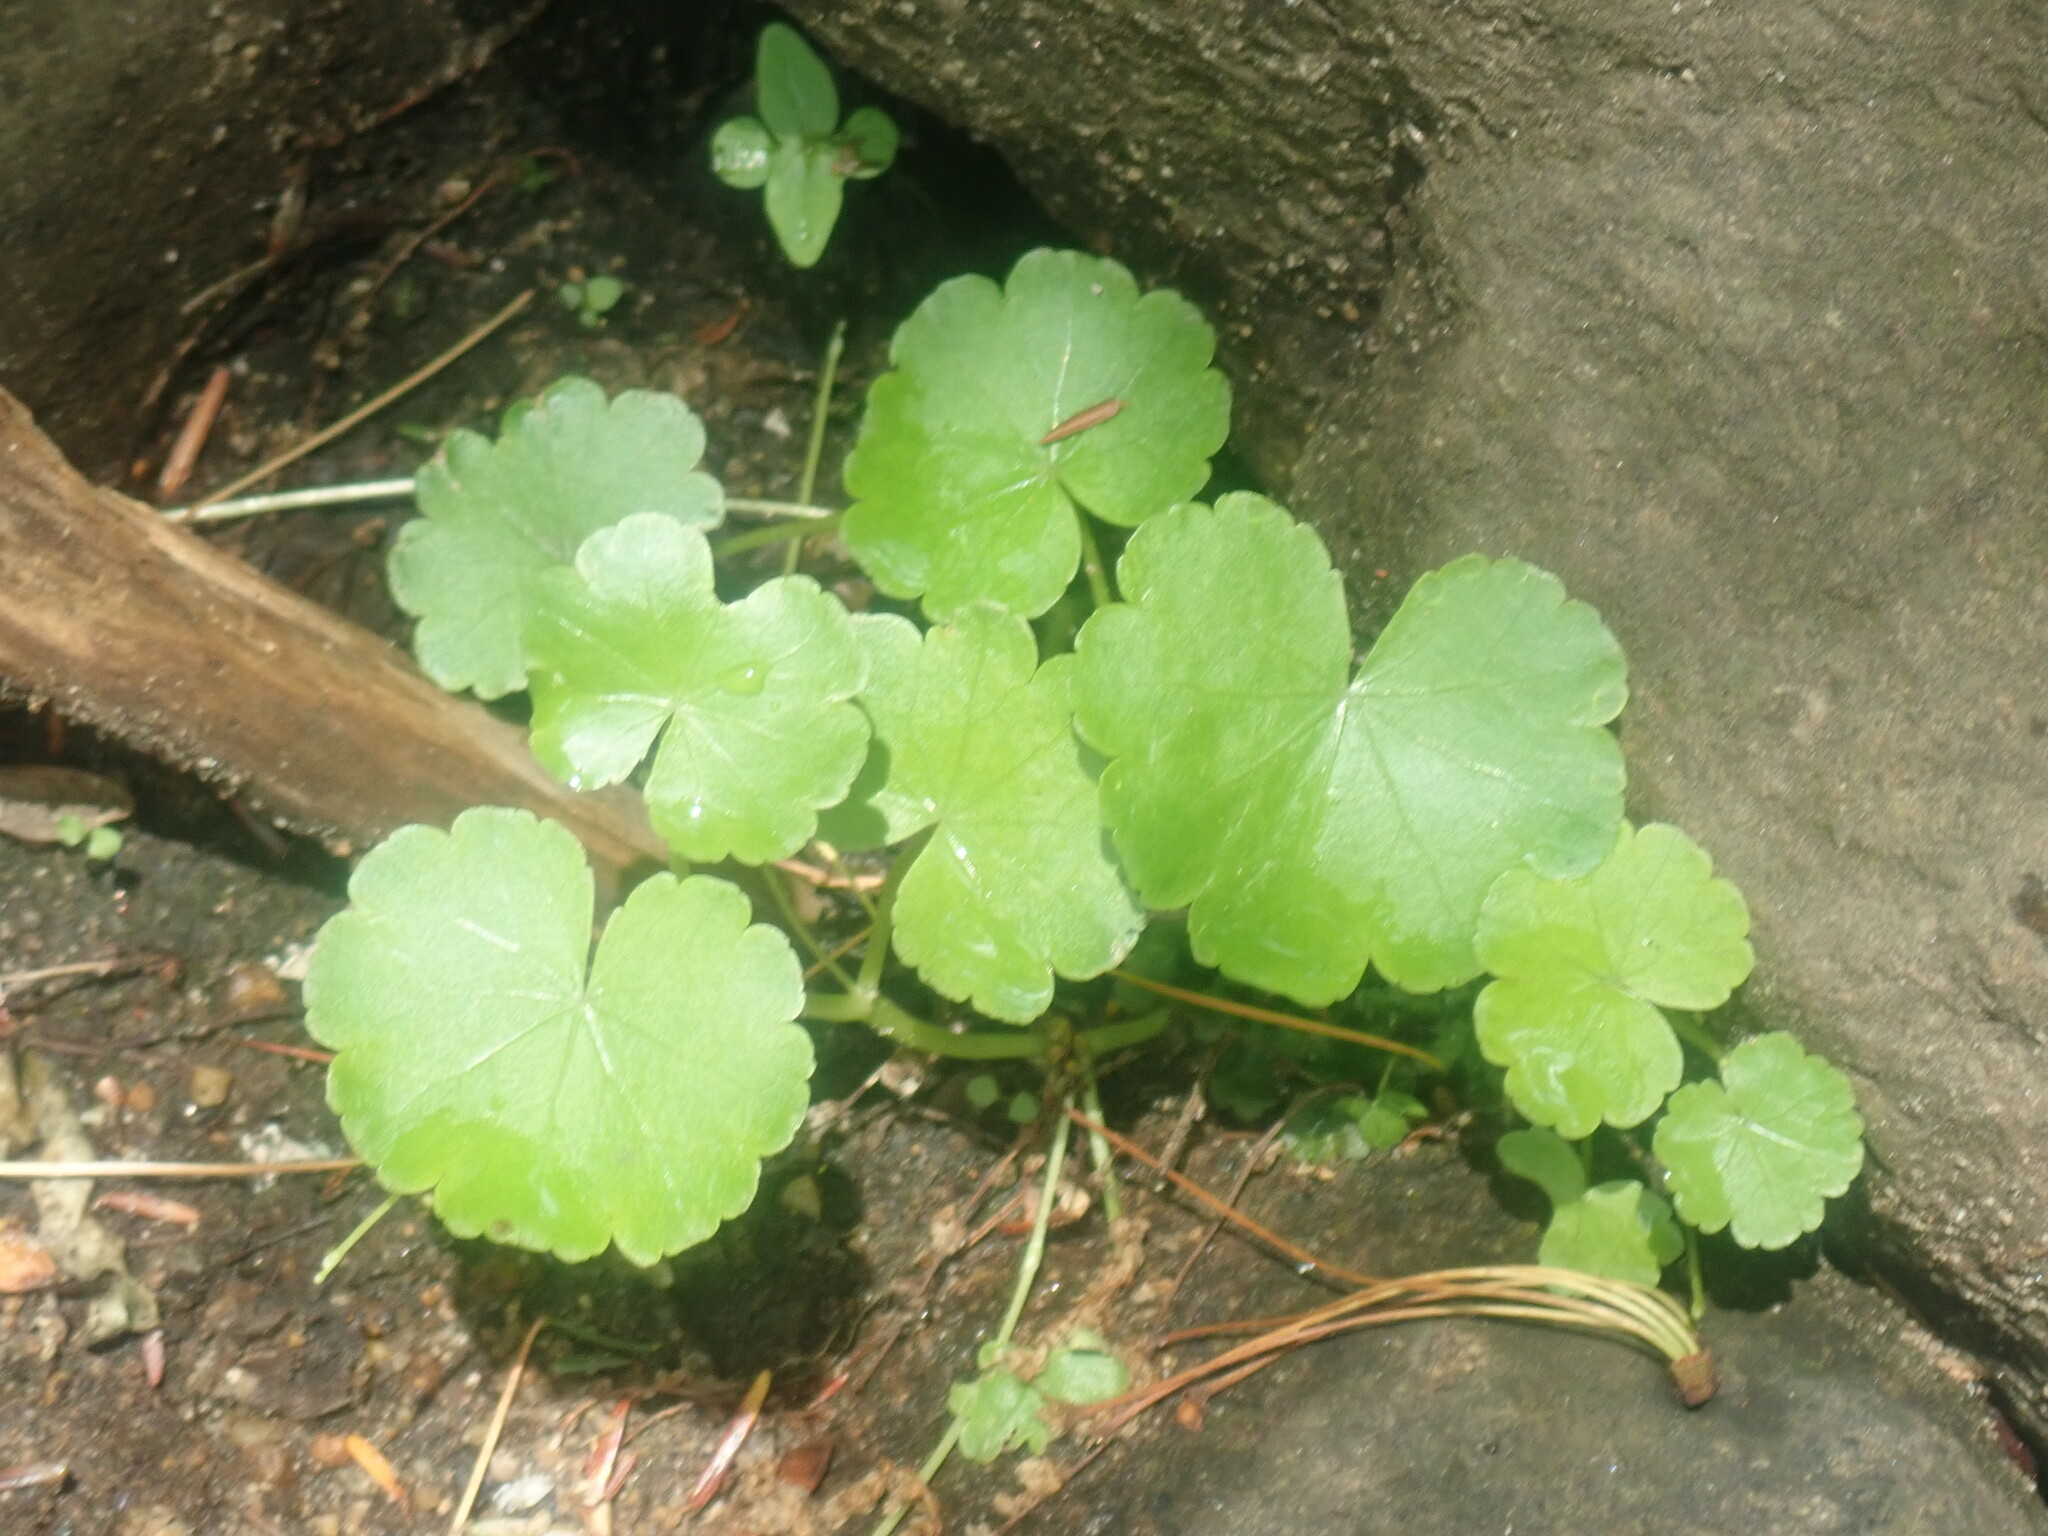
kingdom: Plantae
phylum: Tracheophyta
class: Magnoliopsida
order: Apiales
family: Araliaceae
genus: Hydrocotyle
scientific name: Hydrocotyle americana
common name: American water-pennywort
